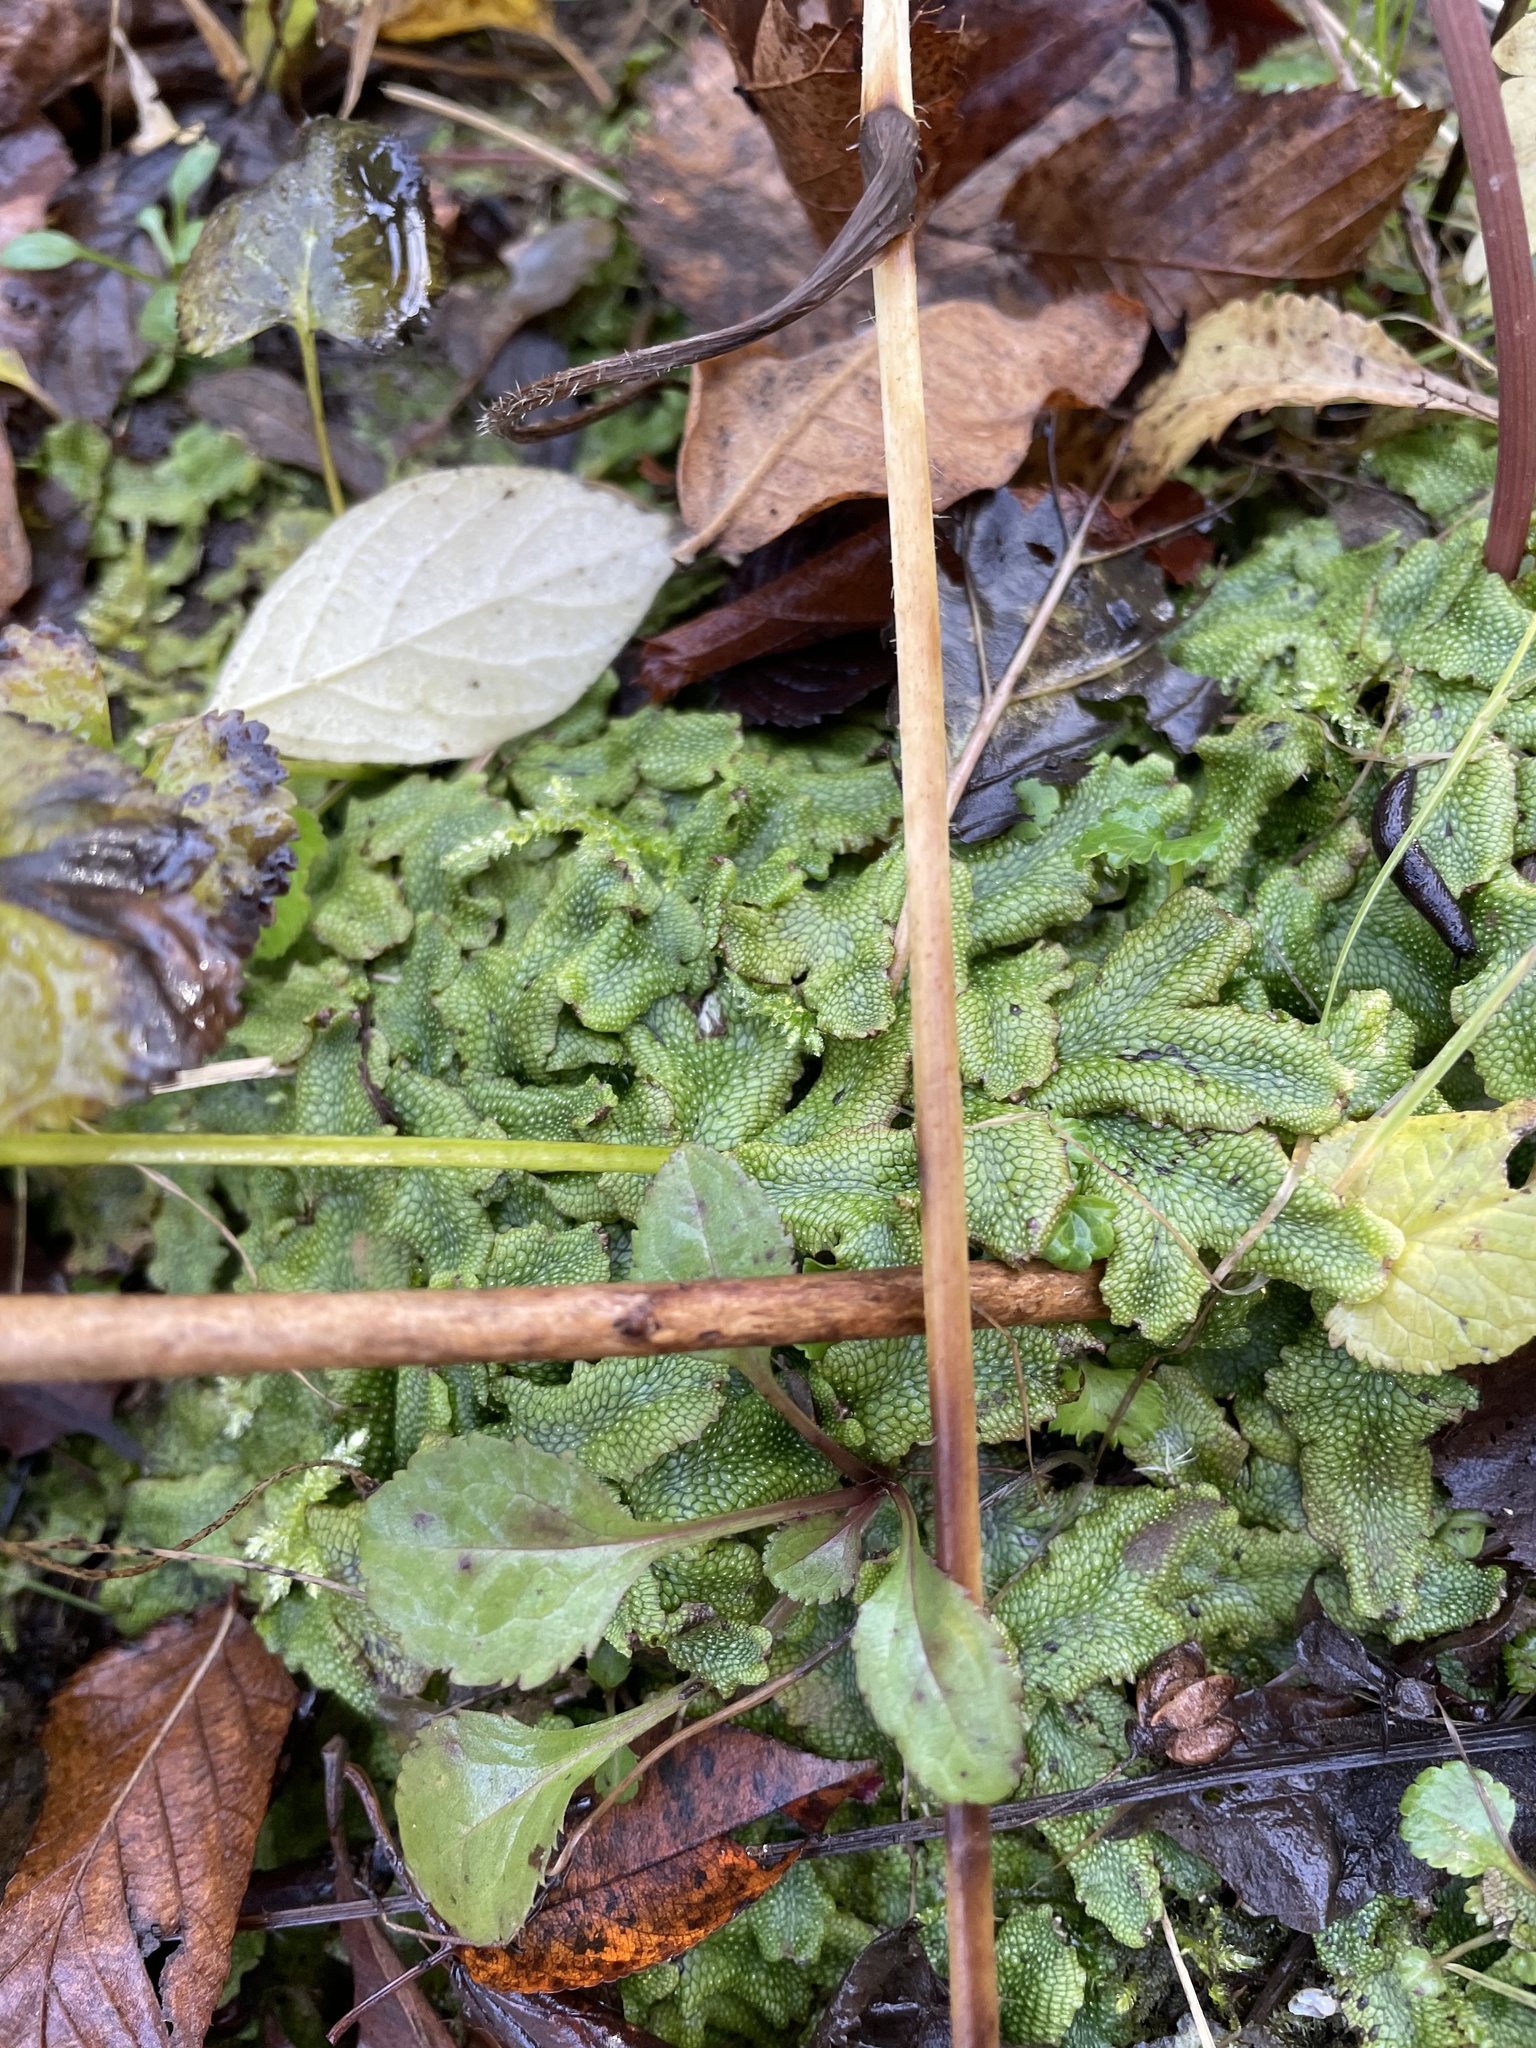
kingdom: Plantae
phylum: Marchantiophyta
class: Marchantiopsida
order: Marchantiales
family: Conocephalaceae
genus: Conocephalum
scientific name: Conocephalum salebrosum
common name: Cat-tongue liverwort
